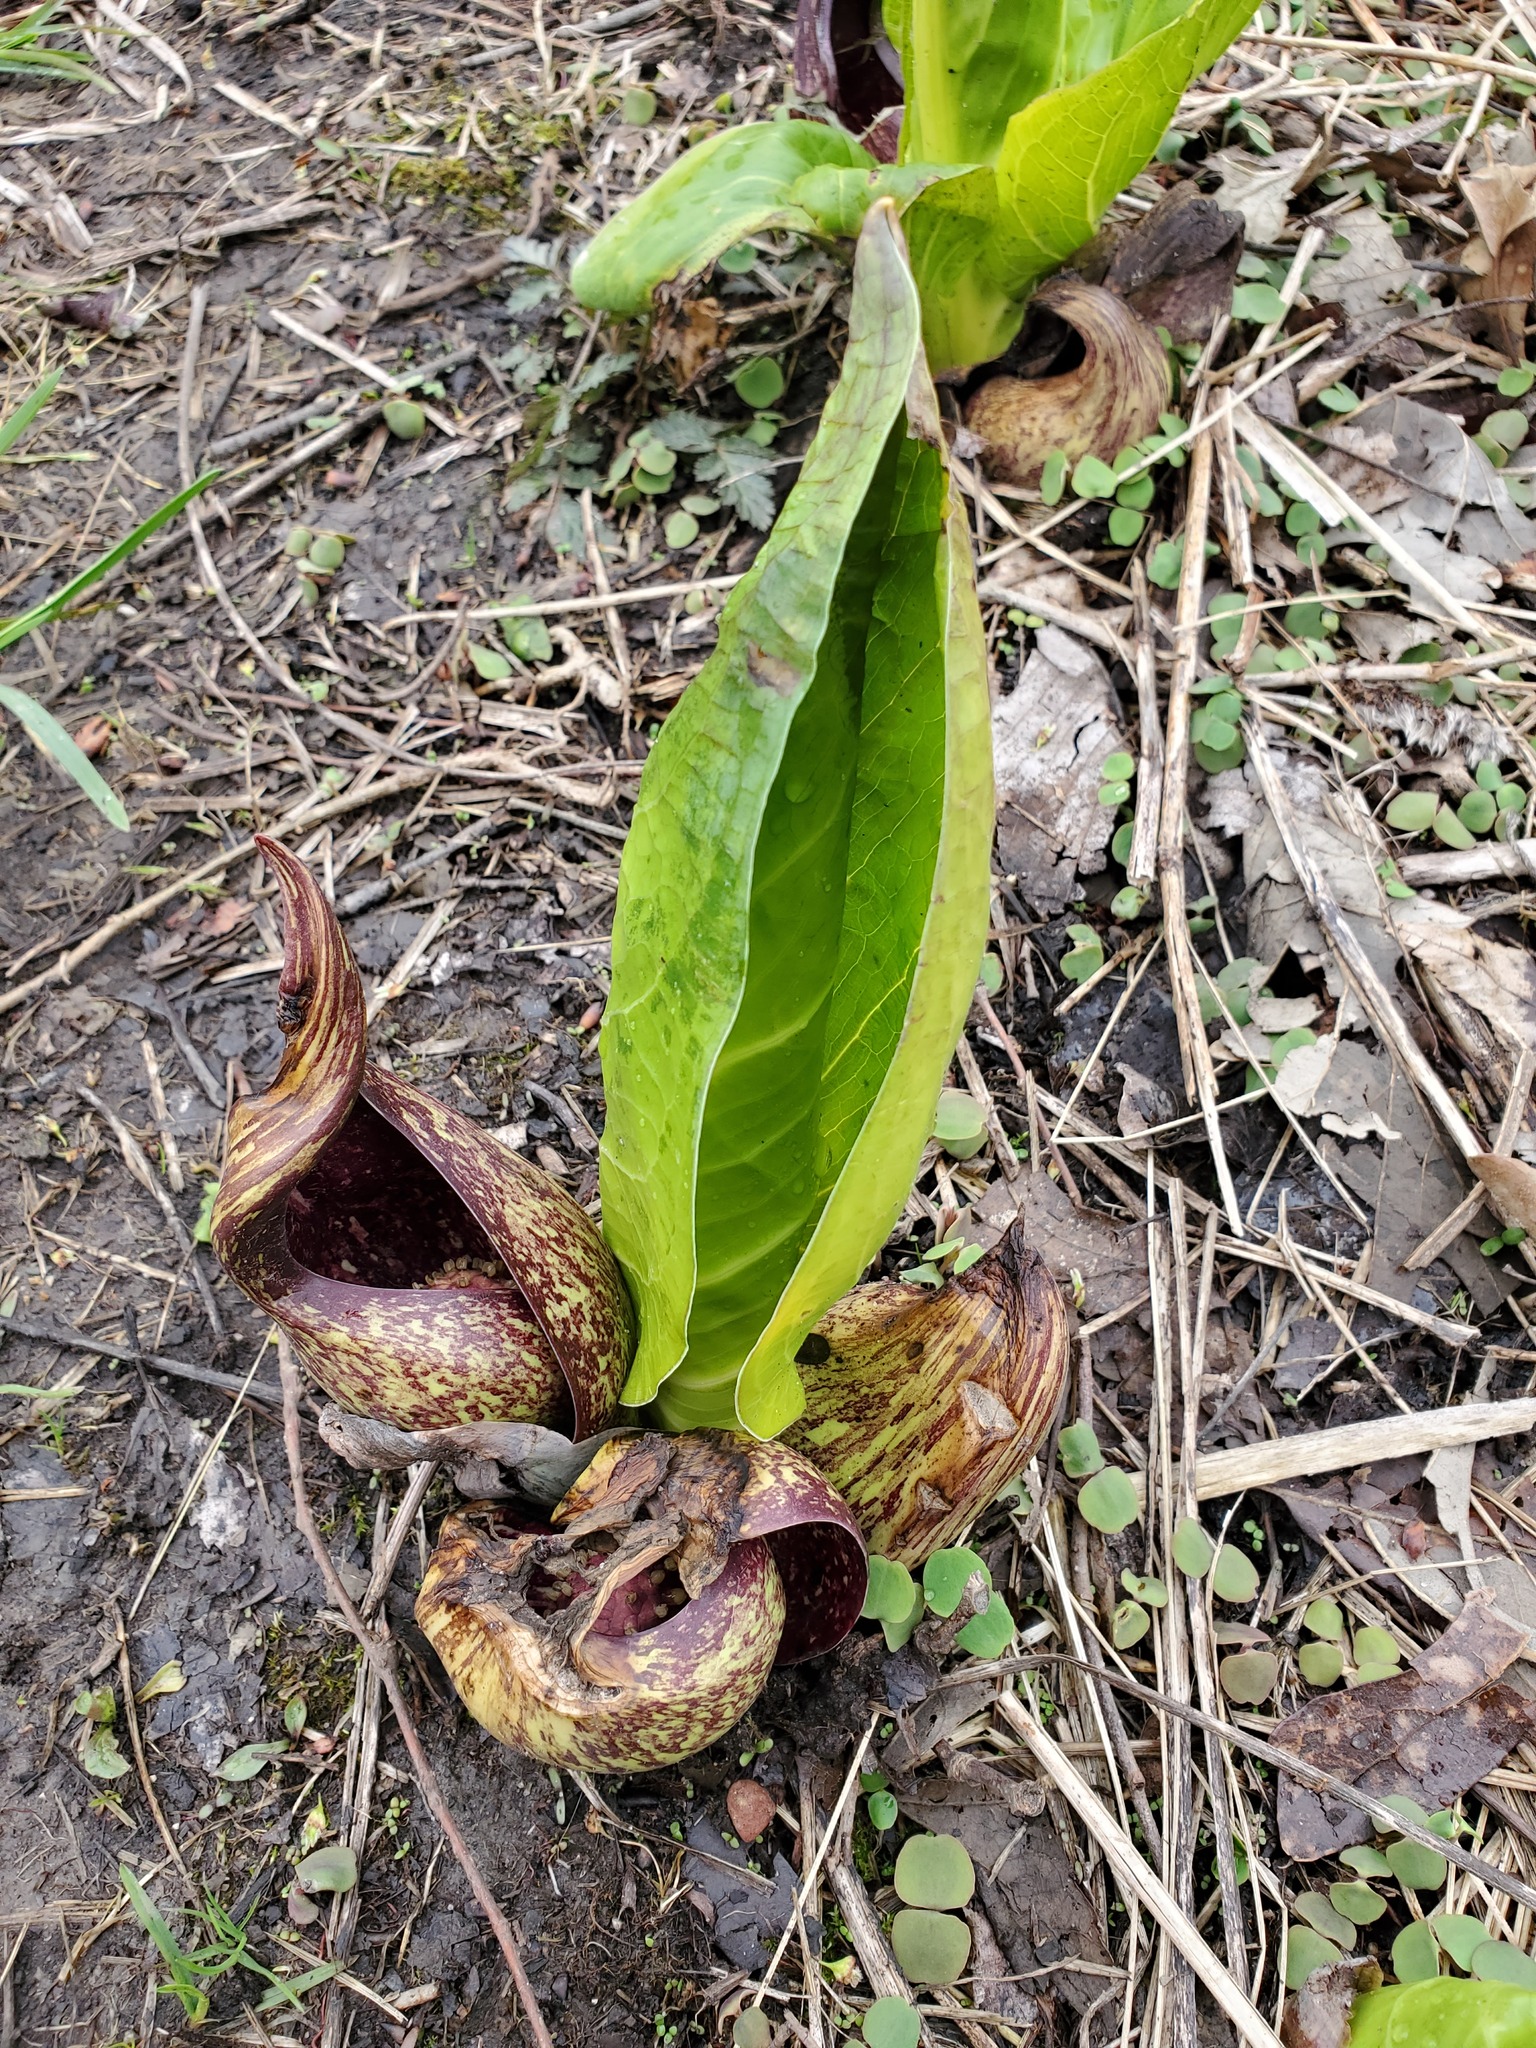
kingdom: Plantae
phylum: Tracheophyta
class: Liliopsida
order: Alismatales
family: Araceae
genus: Symplocarpus
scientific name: Symplocarpus foetidus
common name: Eastern skunk cabbage
